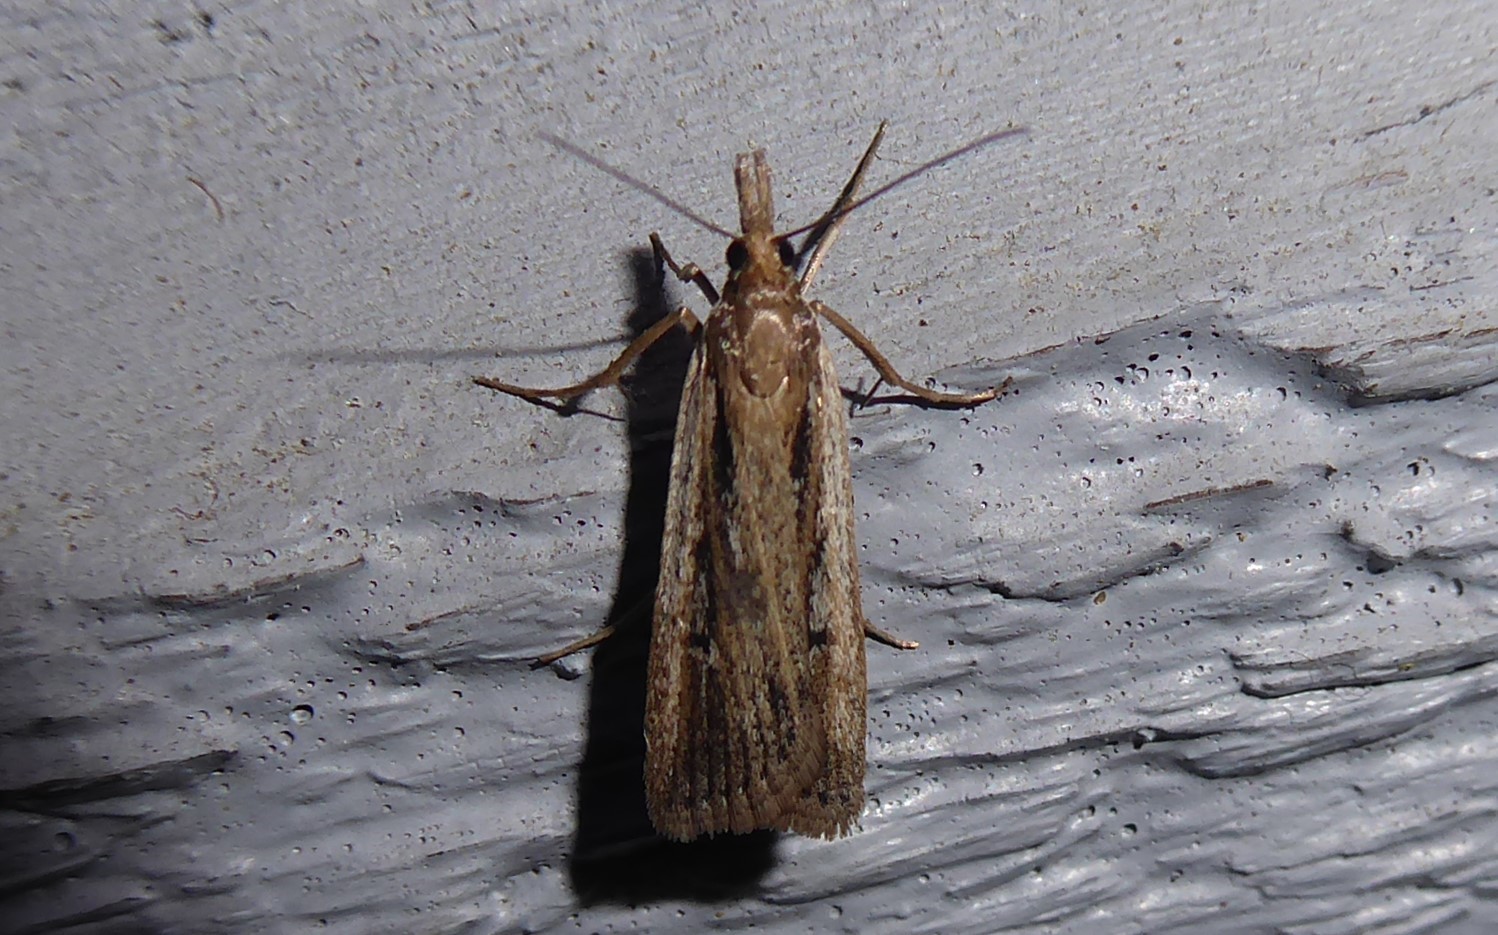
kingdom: Animalia
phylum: Arthropoda
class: Insecta
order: Lepidoptera
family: Crambidae
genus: Eudonia
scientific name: Eudonia sabulosella
